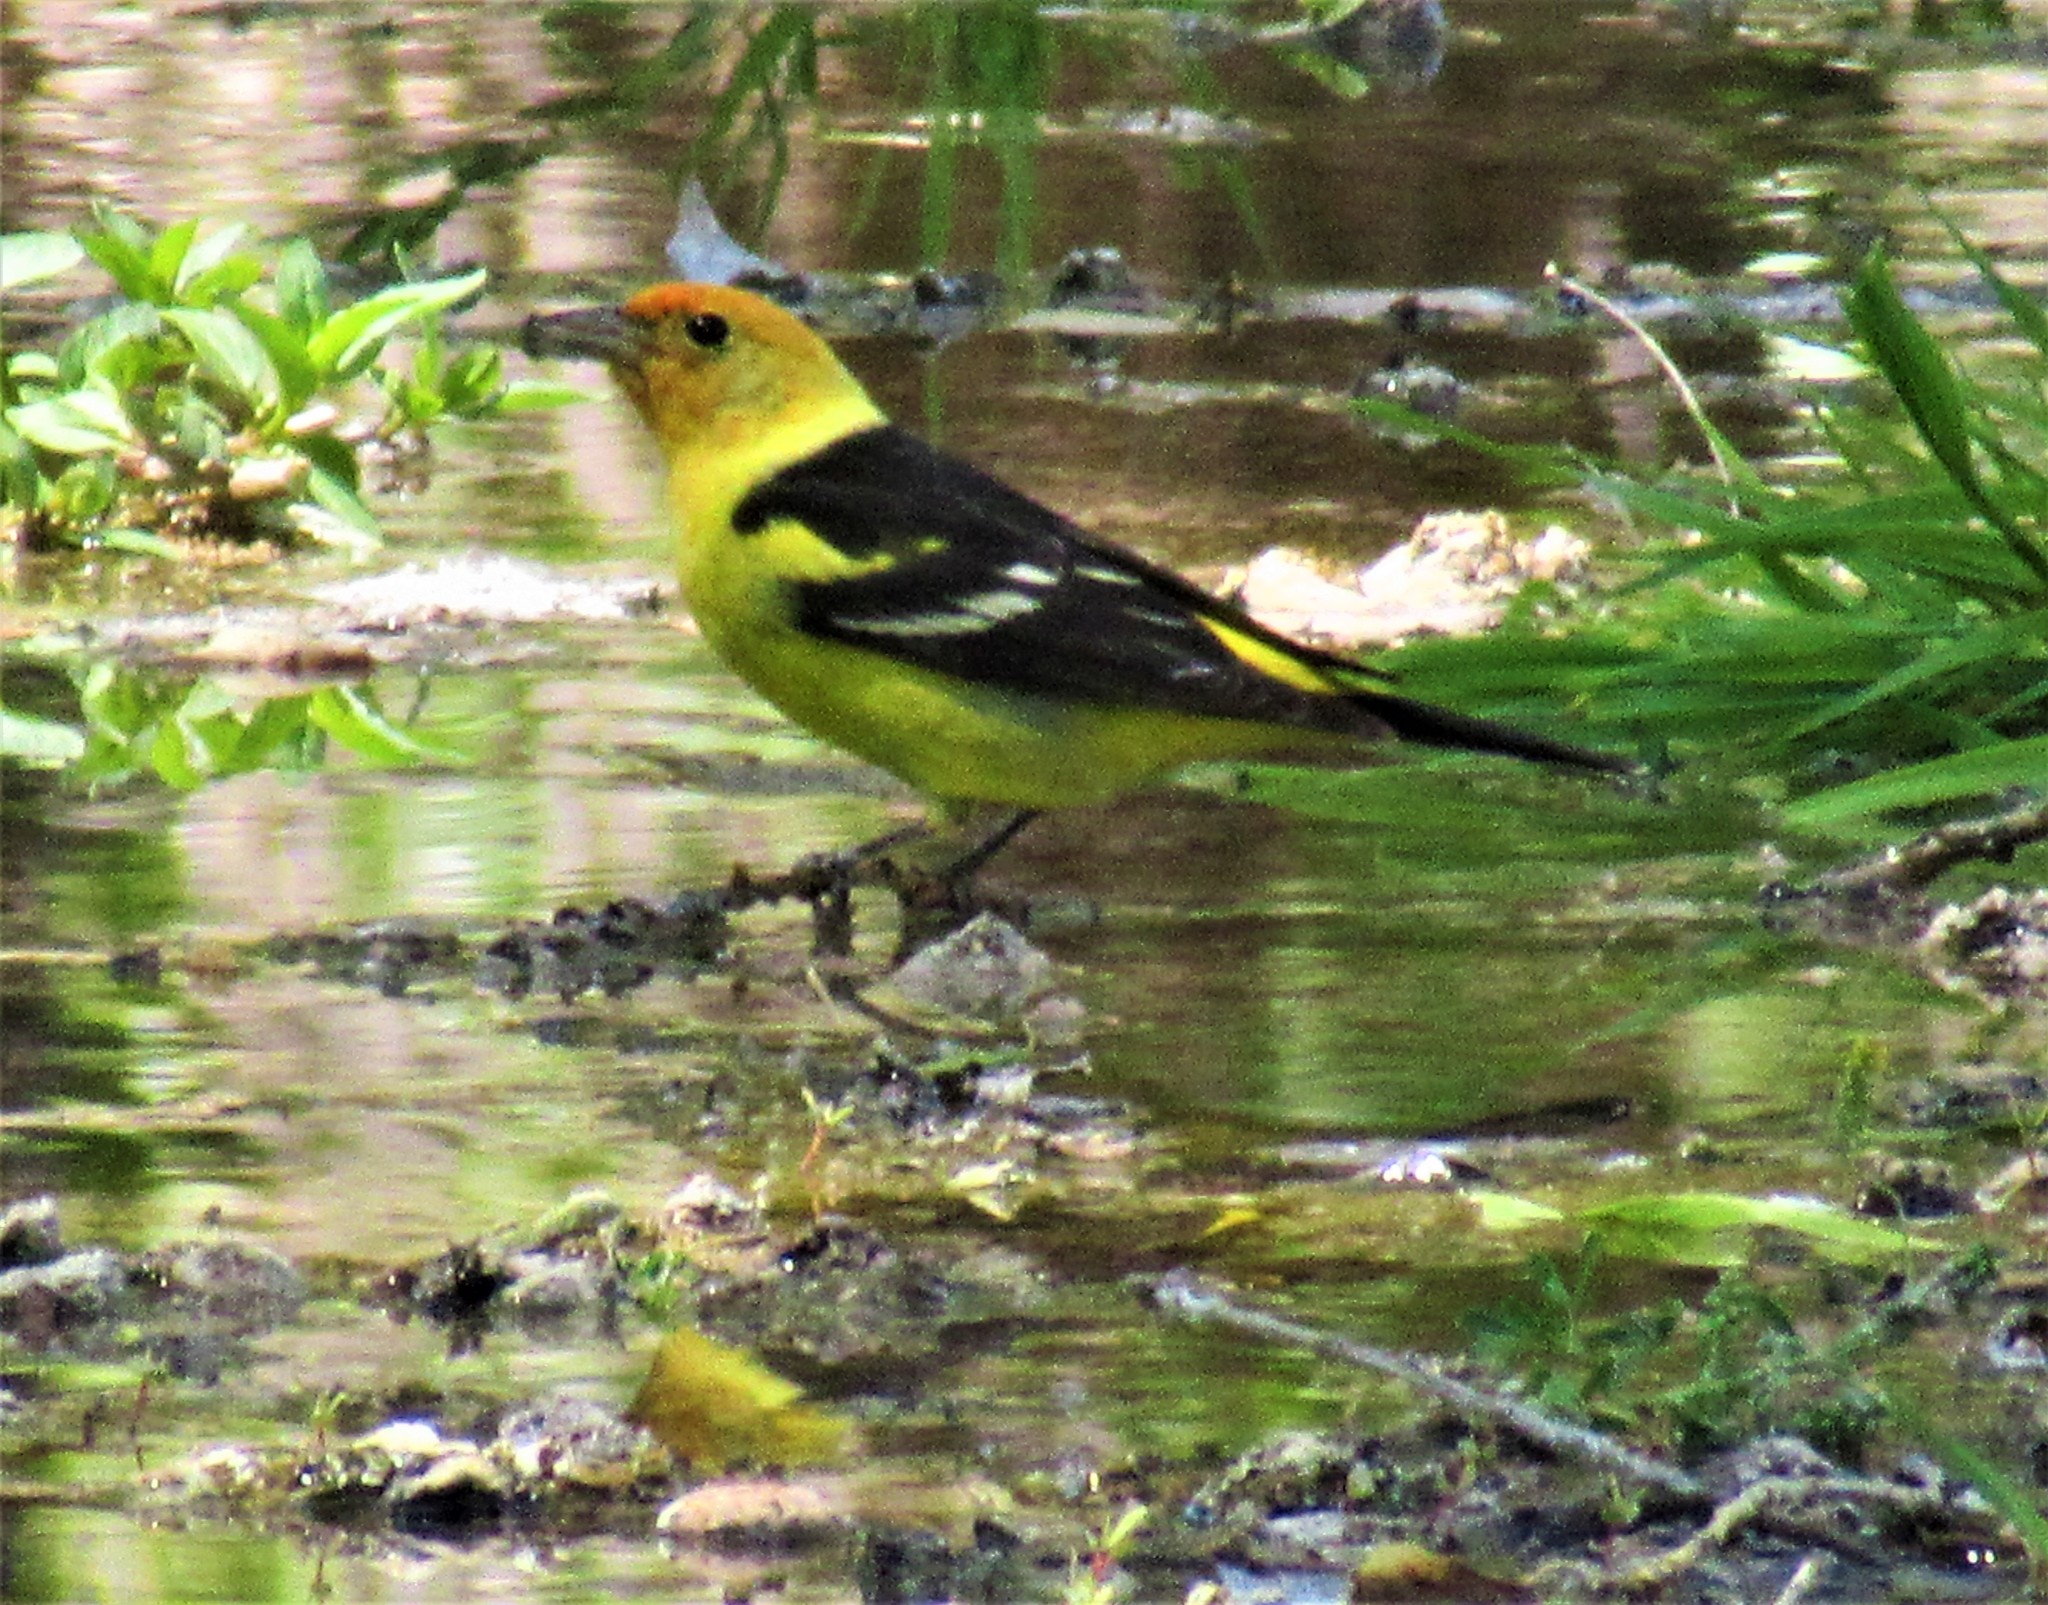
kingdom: Animalia
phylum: Chordata
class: Aves
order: Passeriformes
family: Cardinalidae
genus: Piranga
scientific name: Piranga ludoviciana
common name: Western tanager
